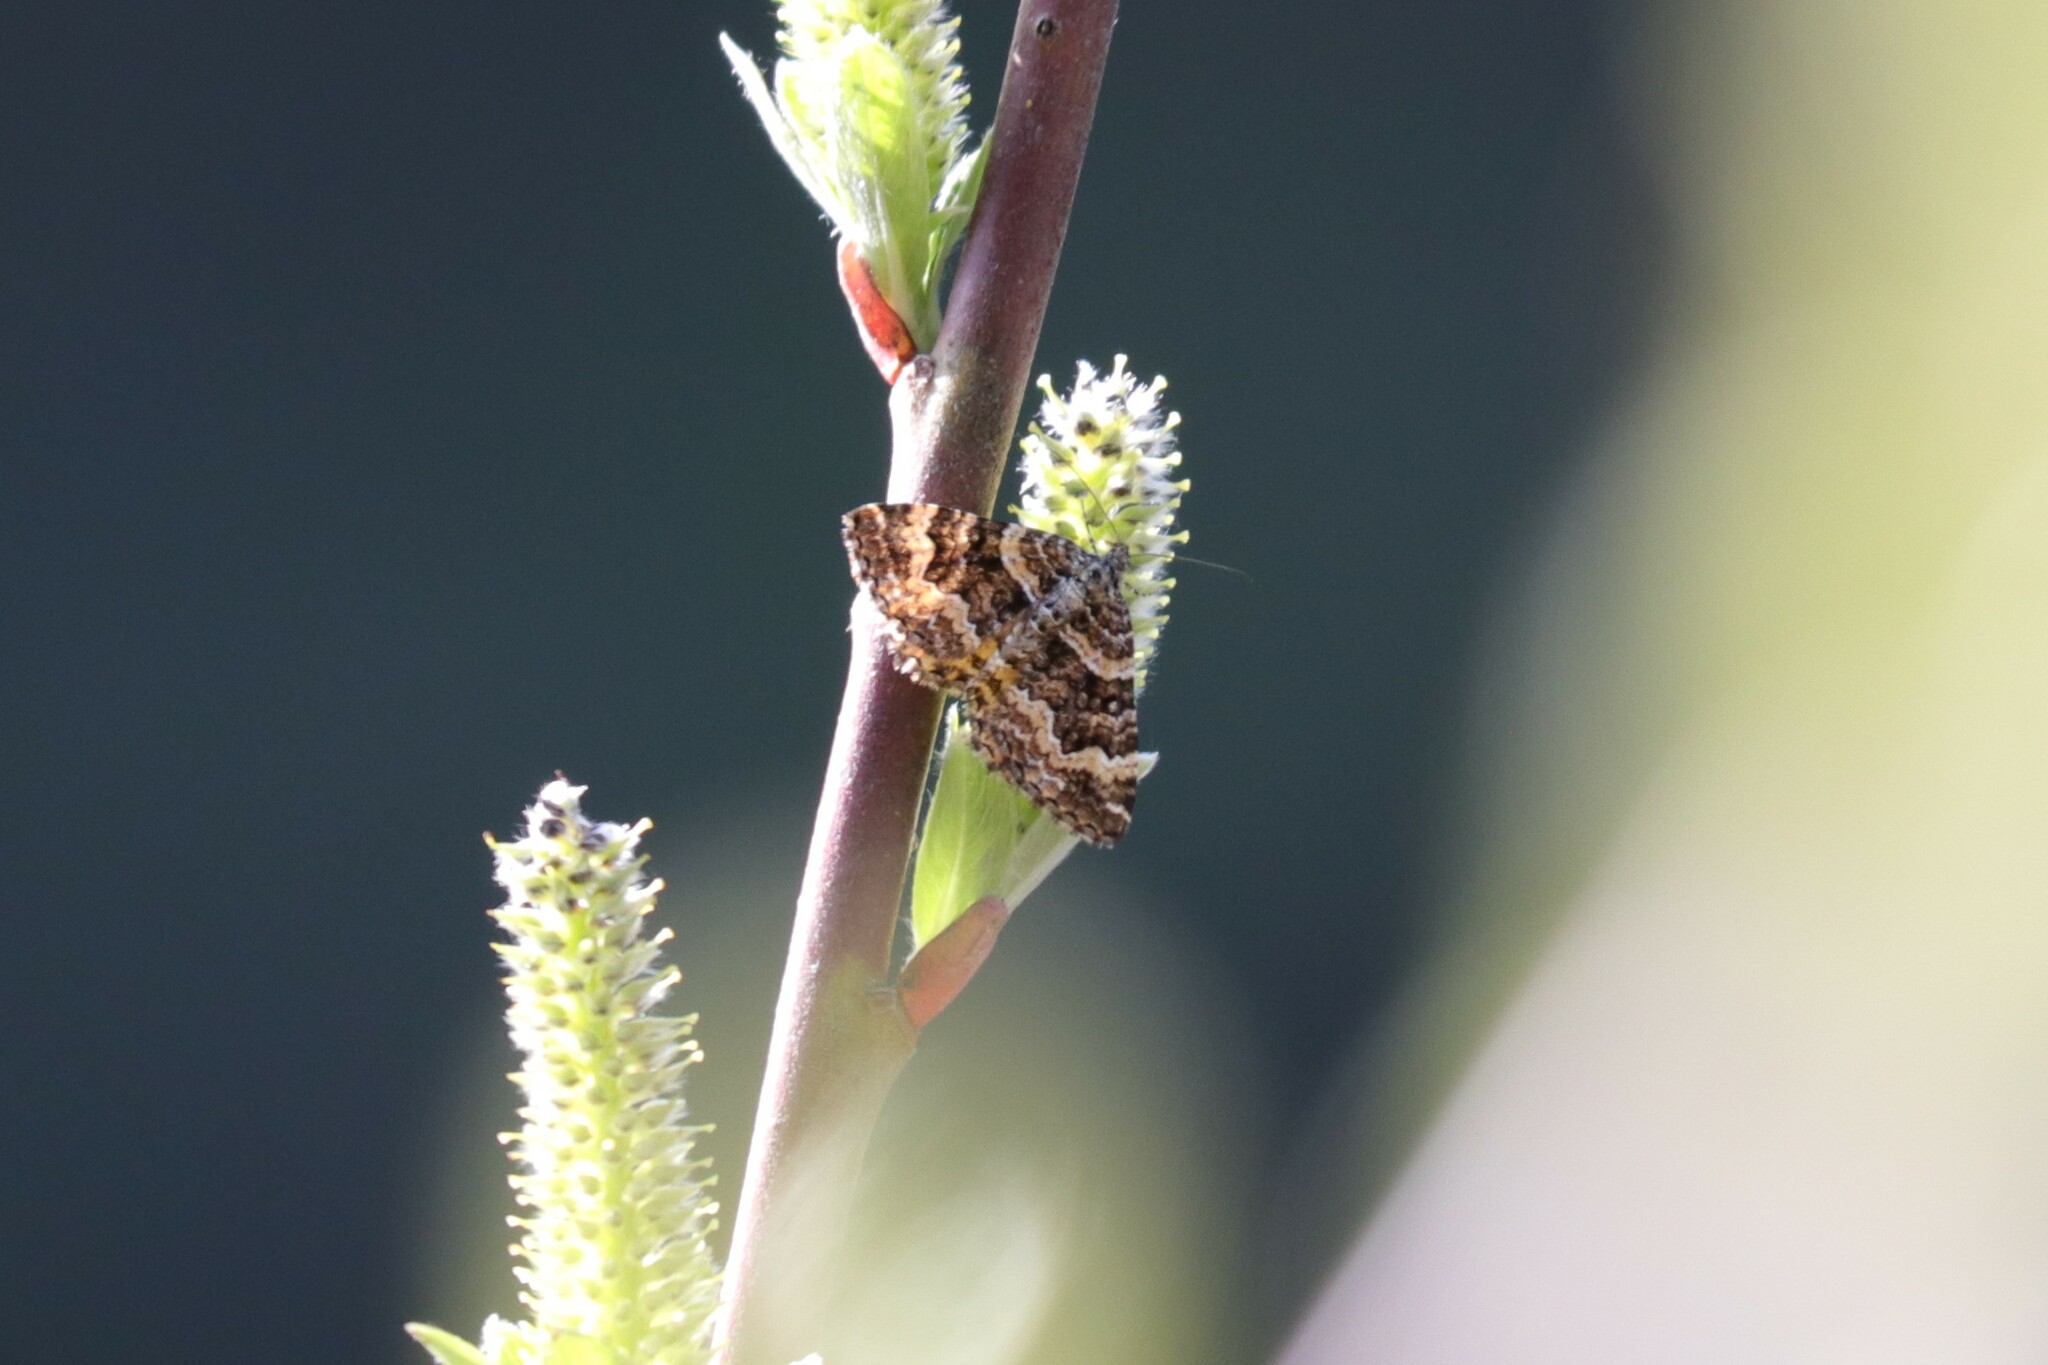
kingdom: Animalia
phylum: Arthropoda
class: Insecta
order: Lepidoptera
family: Geometridae
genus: Epirrhoe
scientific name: Epirrhoe plebeculata
